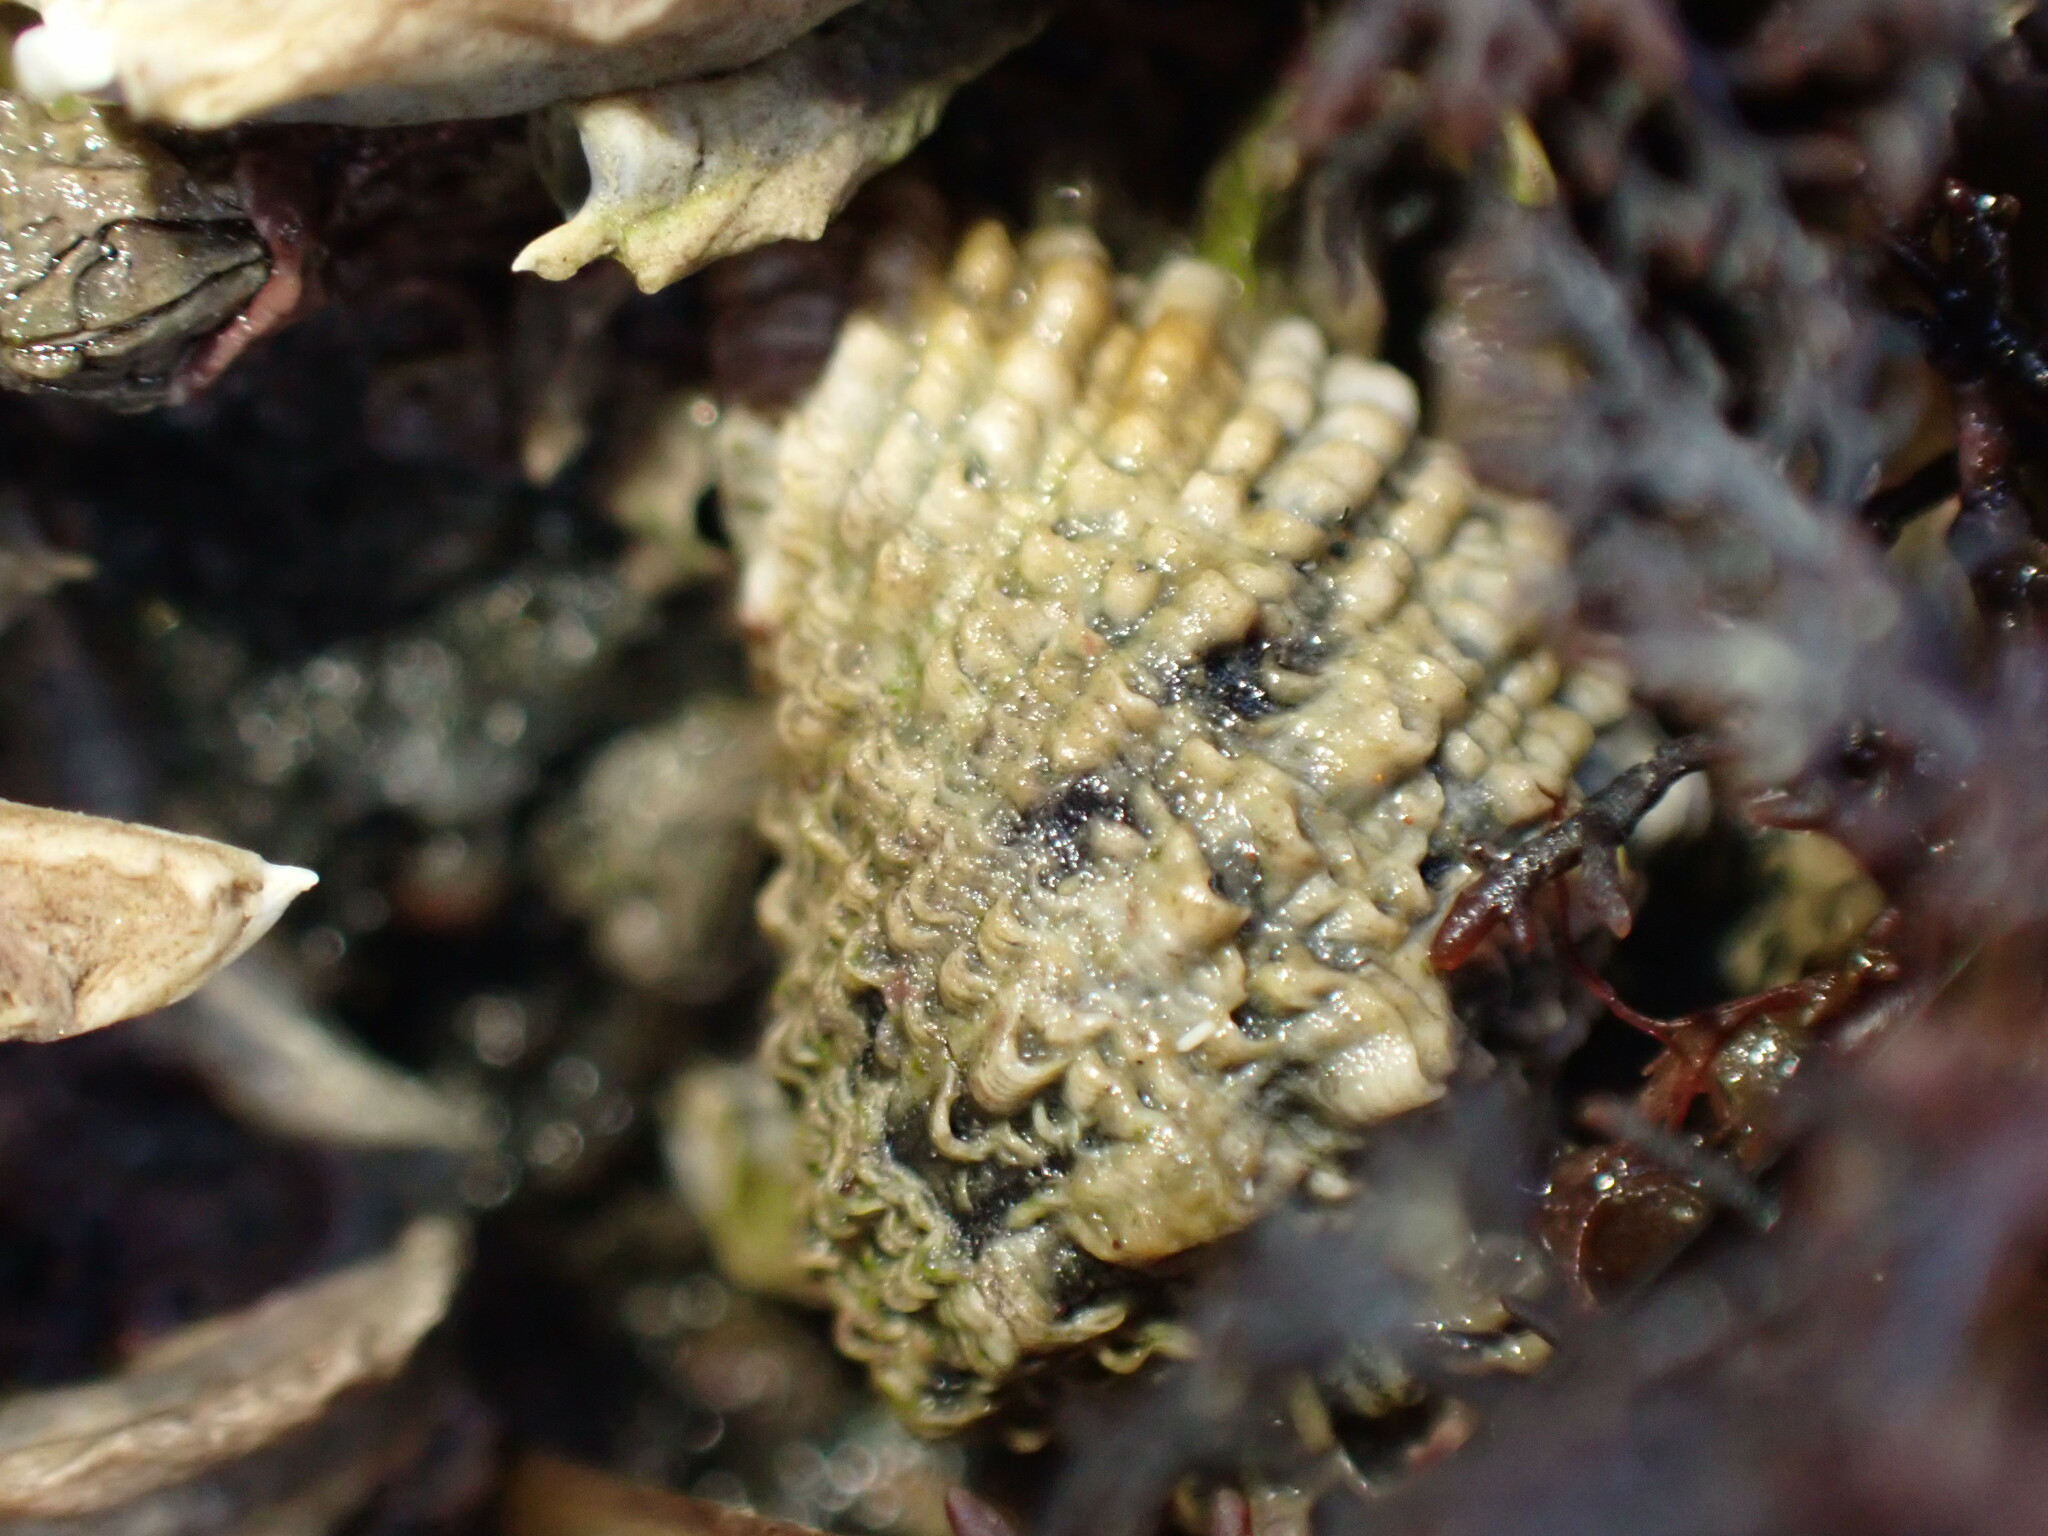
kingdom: Animalia
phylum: Mollusca
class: Gastropoda
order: Neogastropoda
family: Muricidae
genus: Haustrum
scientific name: Haustrum haustorium
